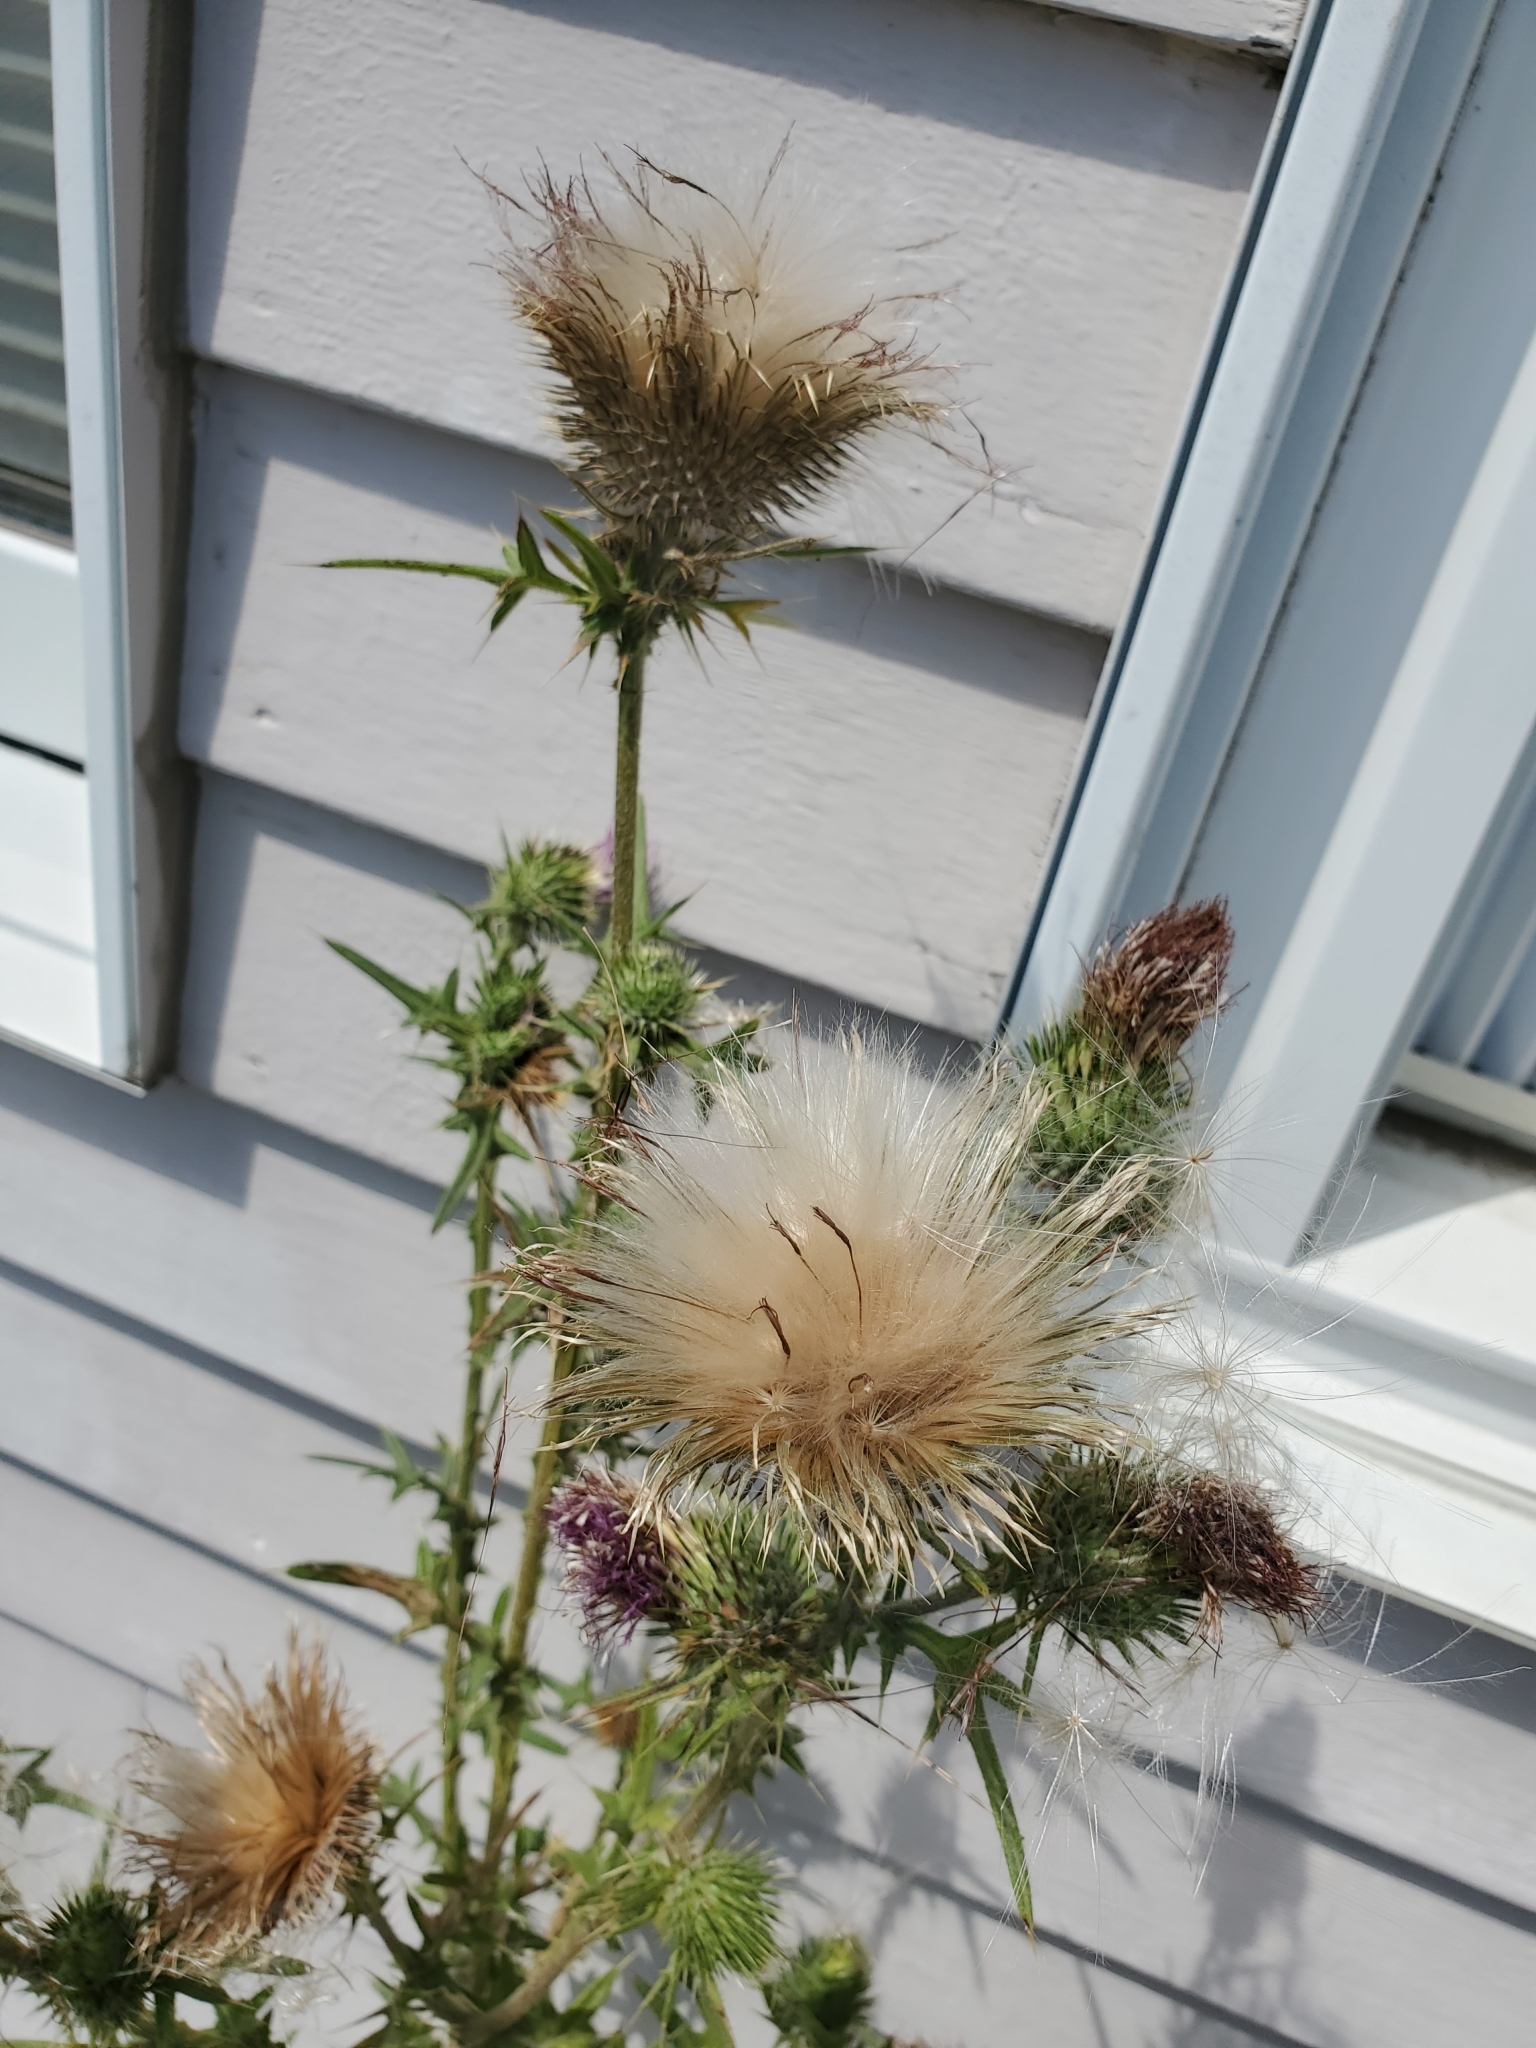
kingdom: Plantae
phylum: Tracheophyta
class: Magnoliopsida
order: Asterales
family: Asteraceae
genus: Cirsium
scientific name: Cirsium vulgare
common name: Bull thistle
